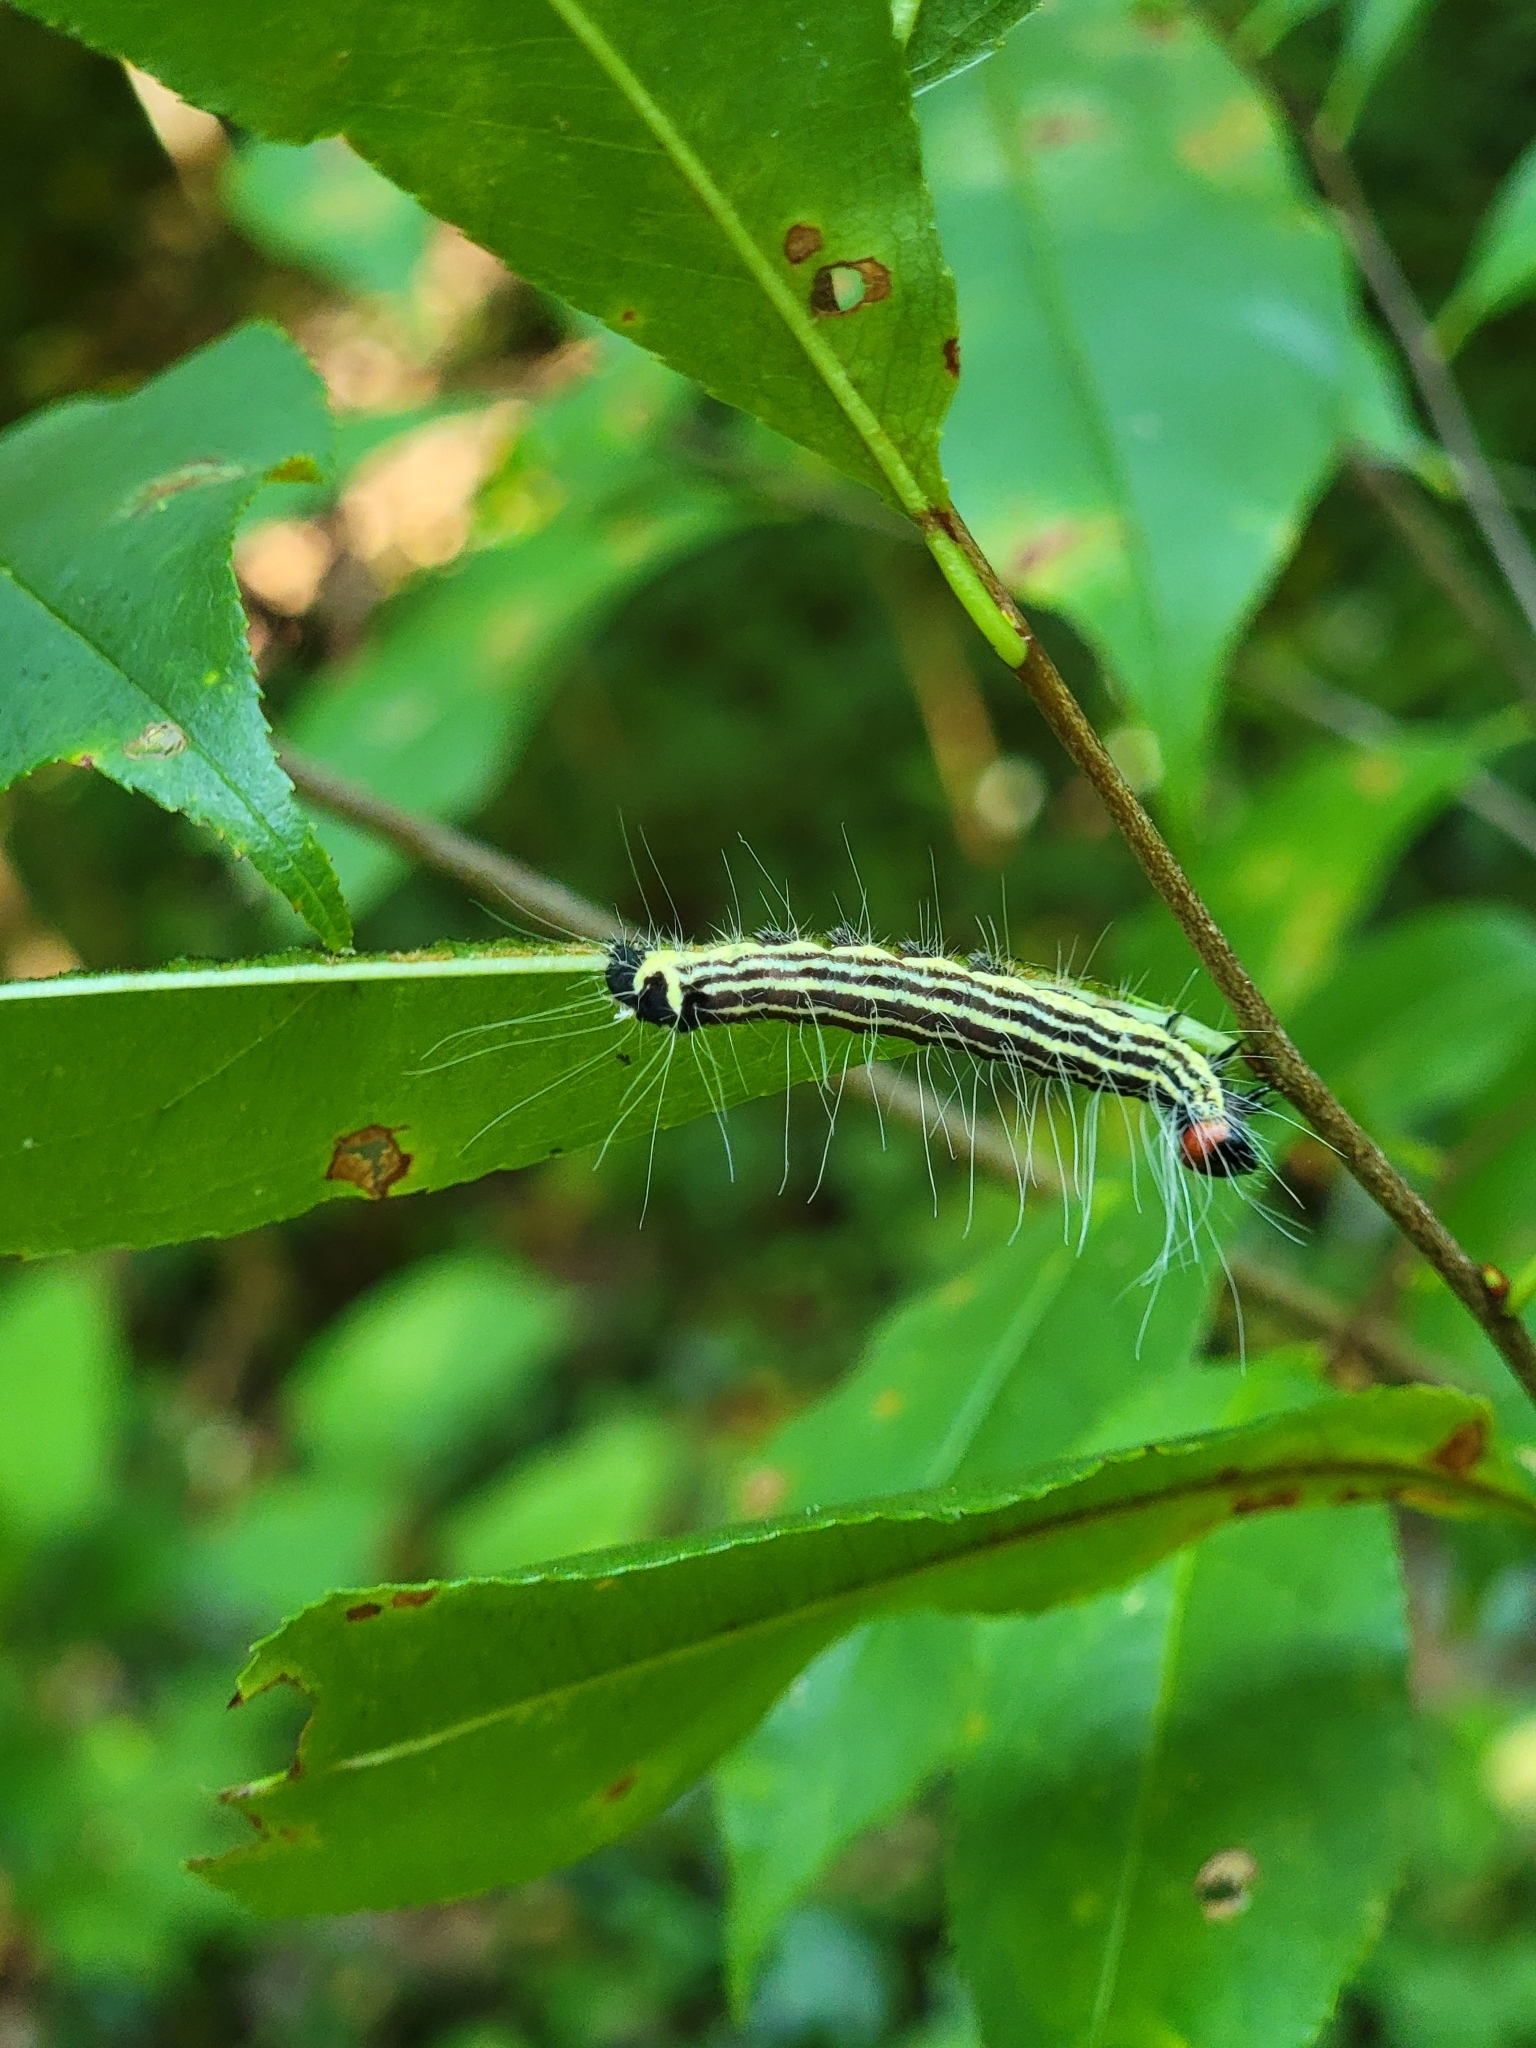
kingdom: Animalia
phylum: Arthropoda
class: Insecta
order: Lepidoptera
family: Noctuidae
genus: Acronicta
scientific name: Acronicta radcliffei
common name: Radcliffe's dagger
